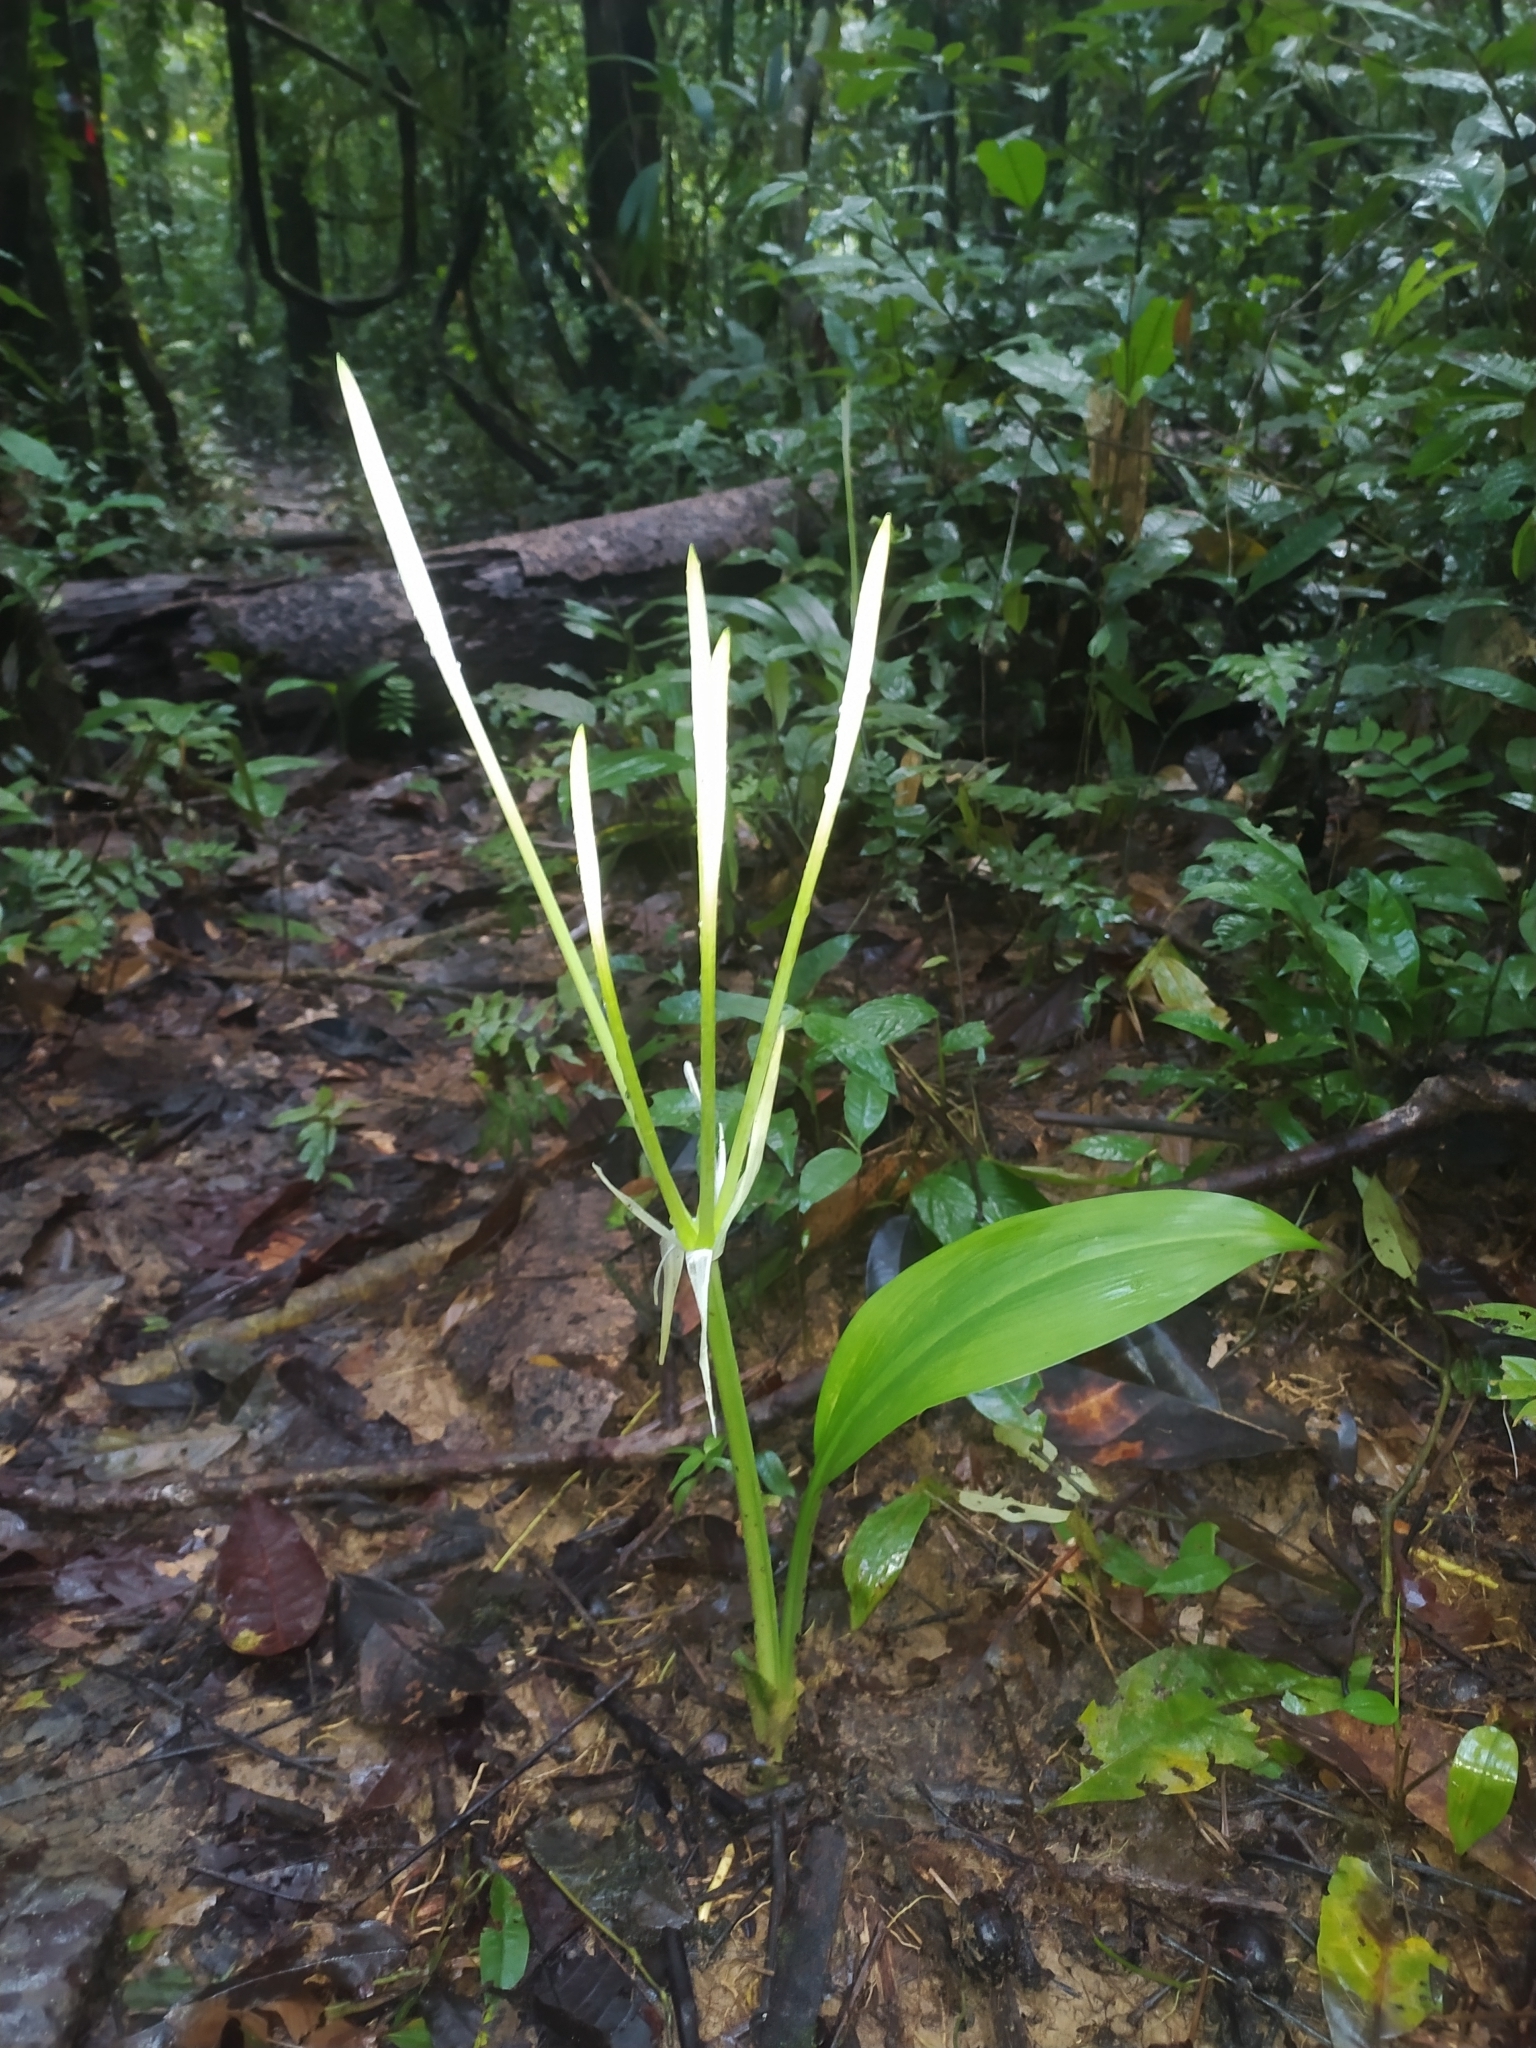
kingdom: Plantae
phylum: Tracheophyta
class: Liliopsida
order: Asparagales
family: Amaryllidaceae
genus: Hymenocallis
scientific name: Hymenocallis tubiflora
